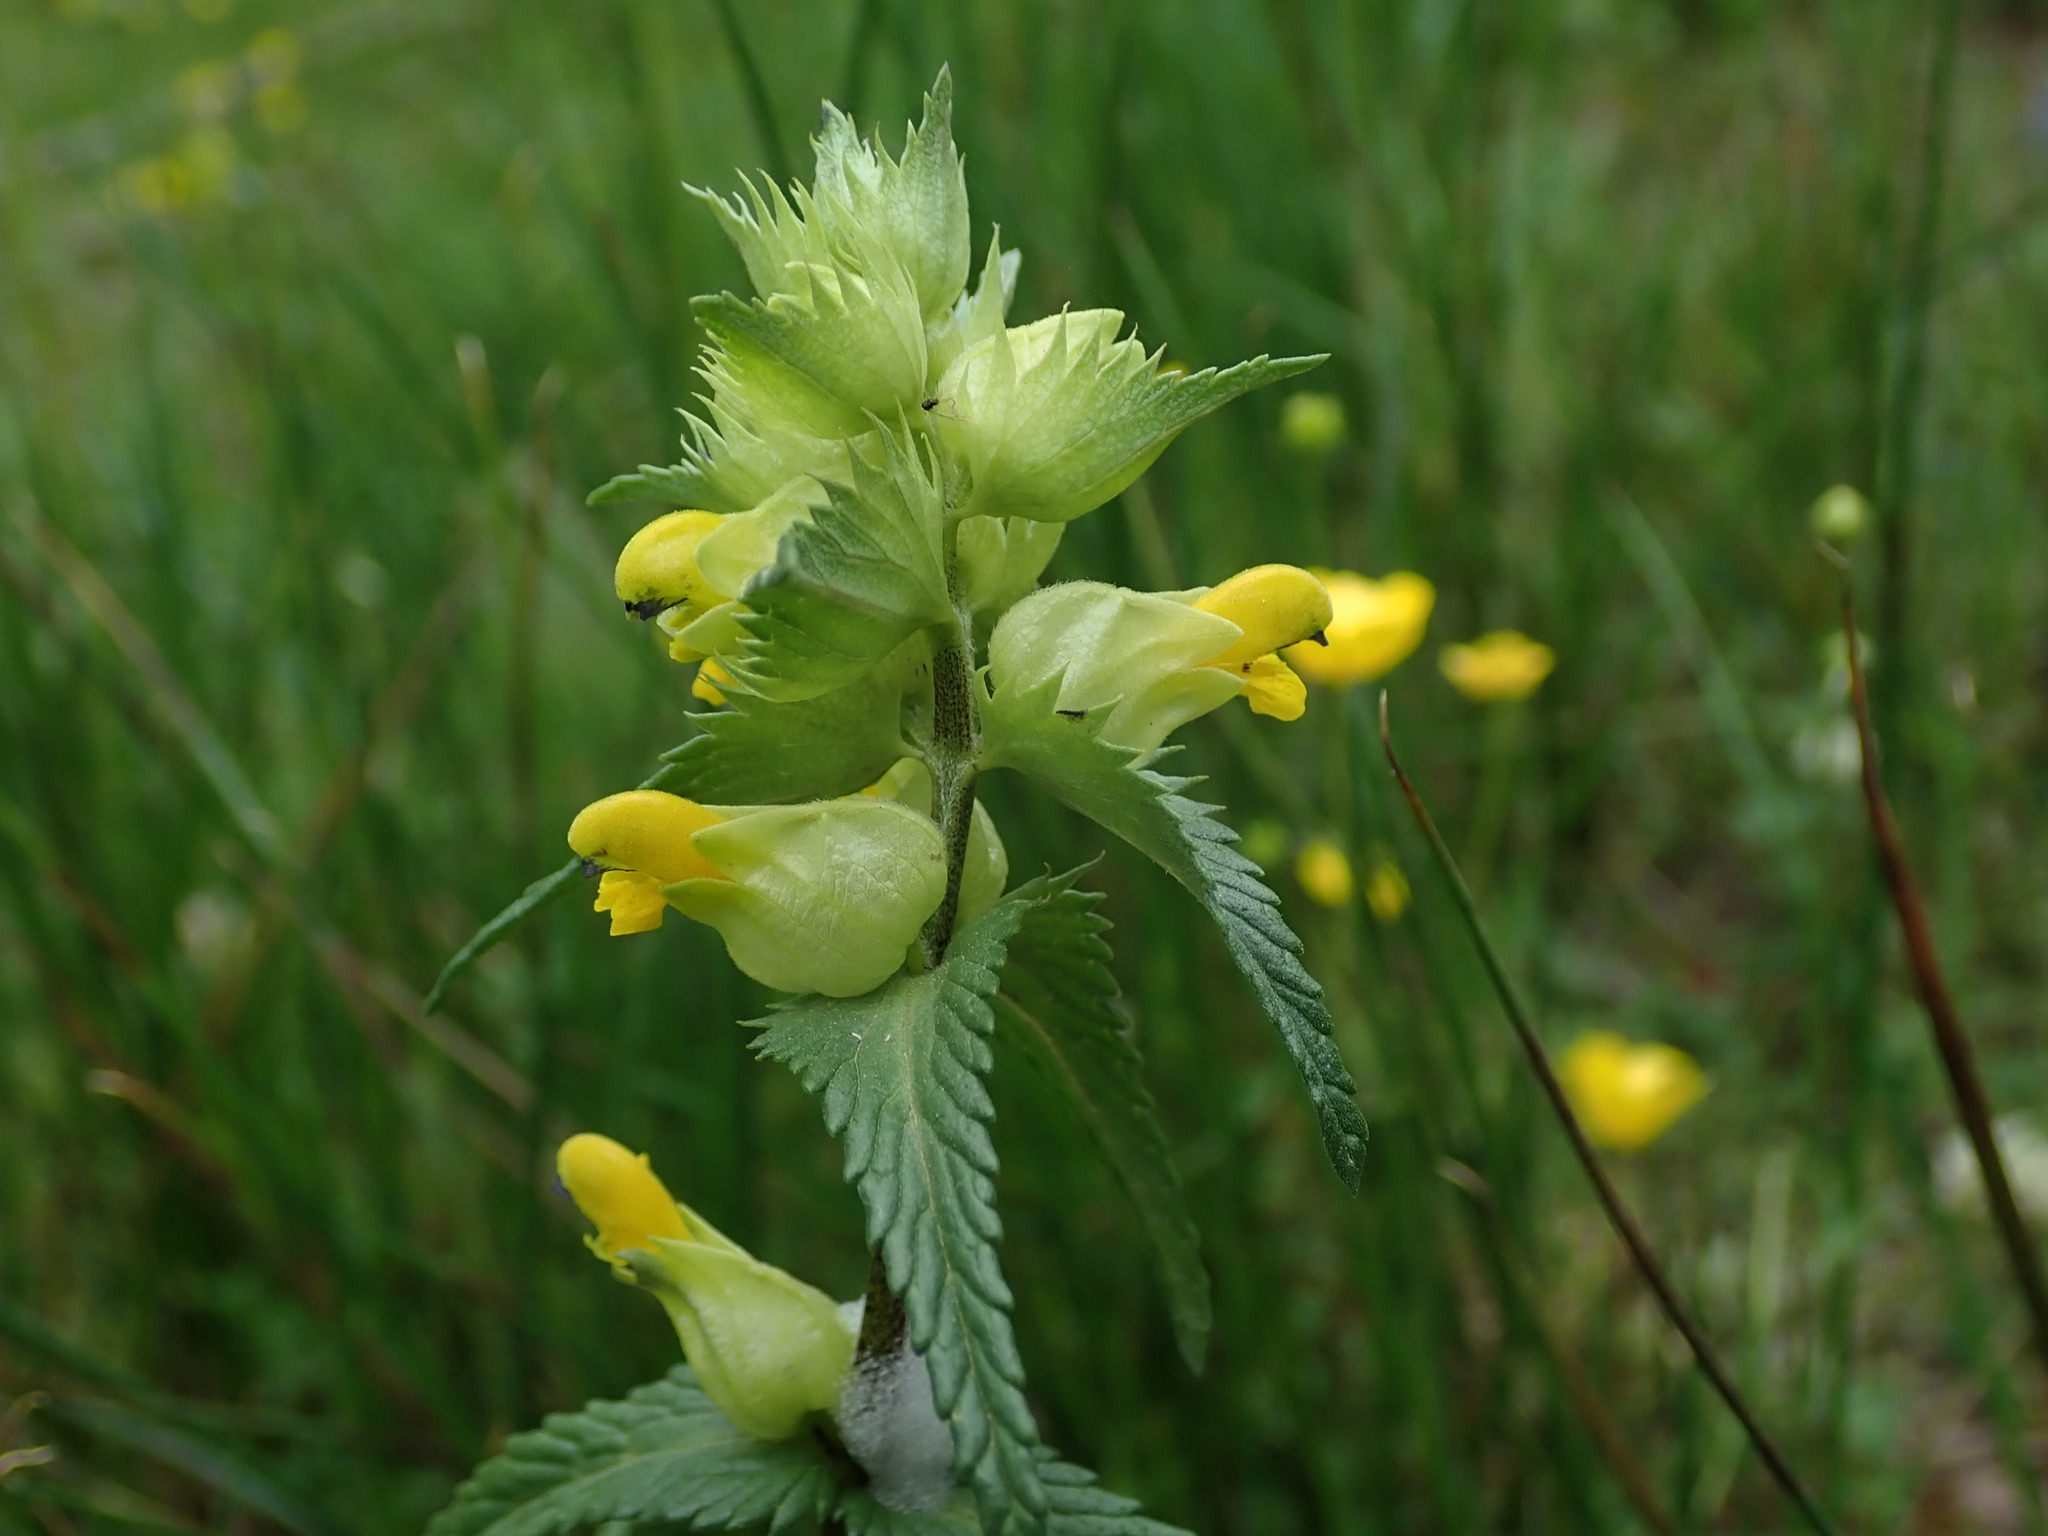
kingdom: Plantae
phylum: Tracheophyta
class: Magnoliopsida
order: Lamiales
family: Orobanchaceae
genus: Rhinanthus
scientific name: Rhinanthus minor
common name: Yellow-rattle
